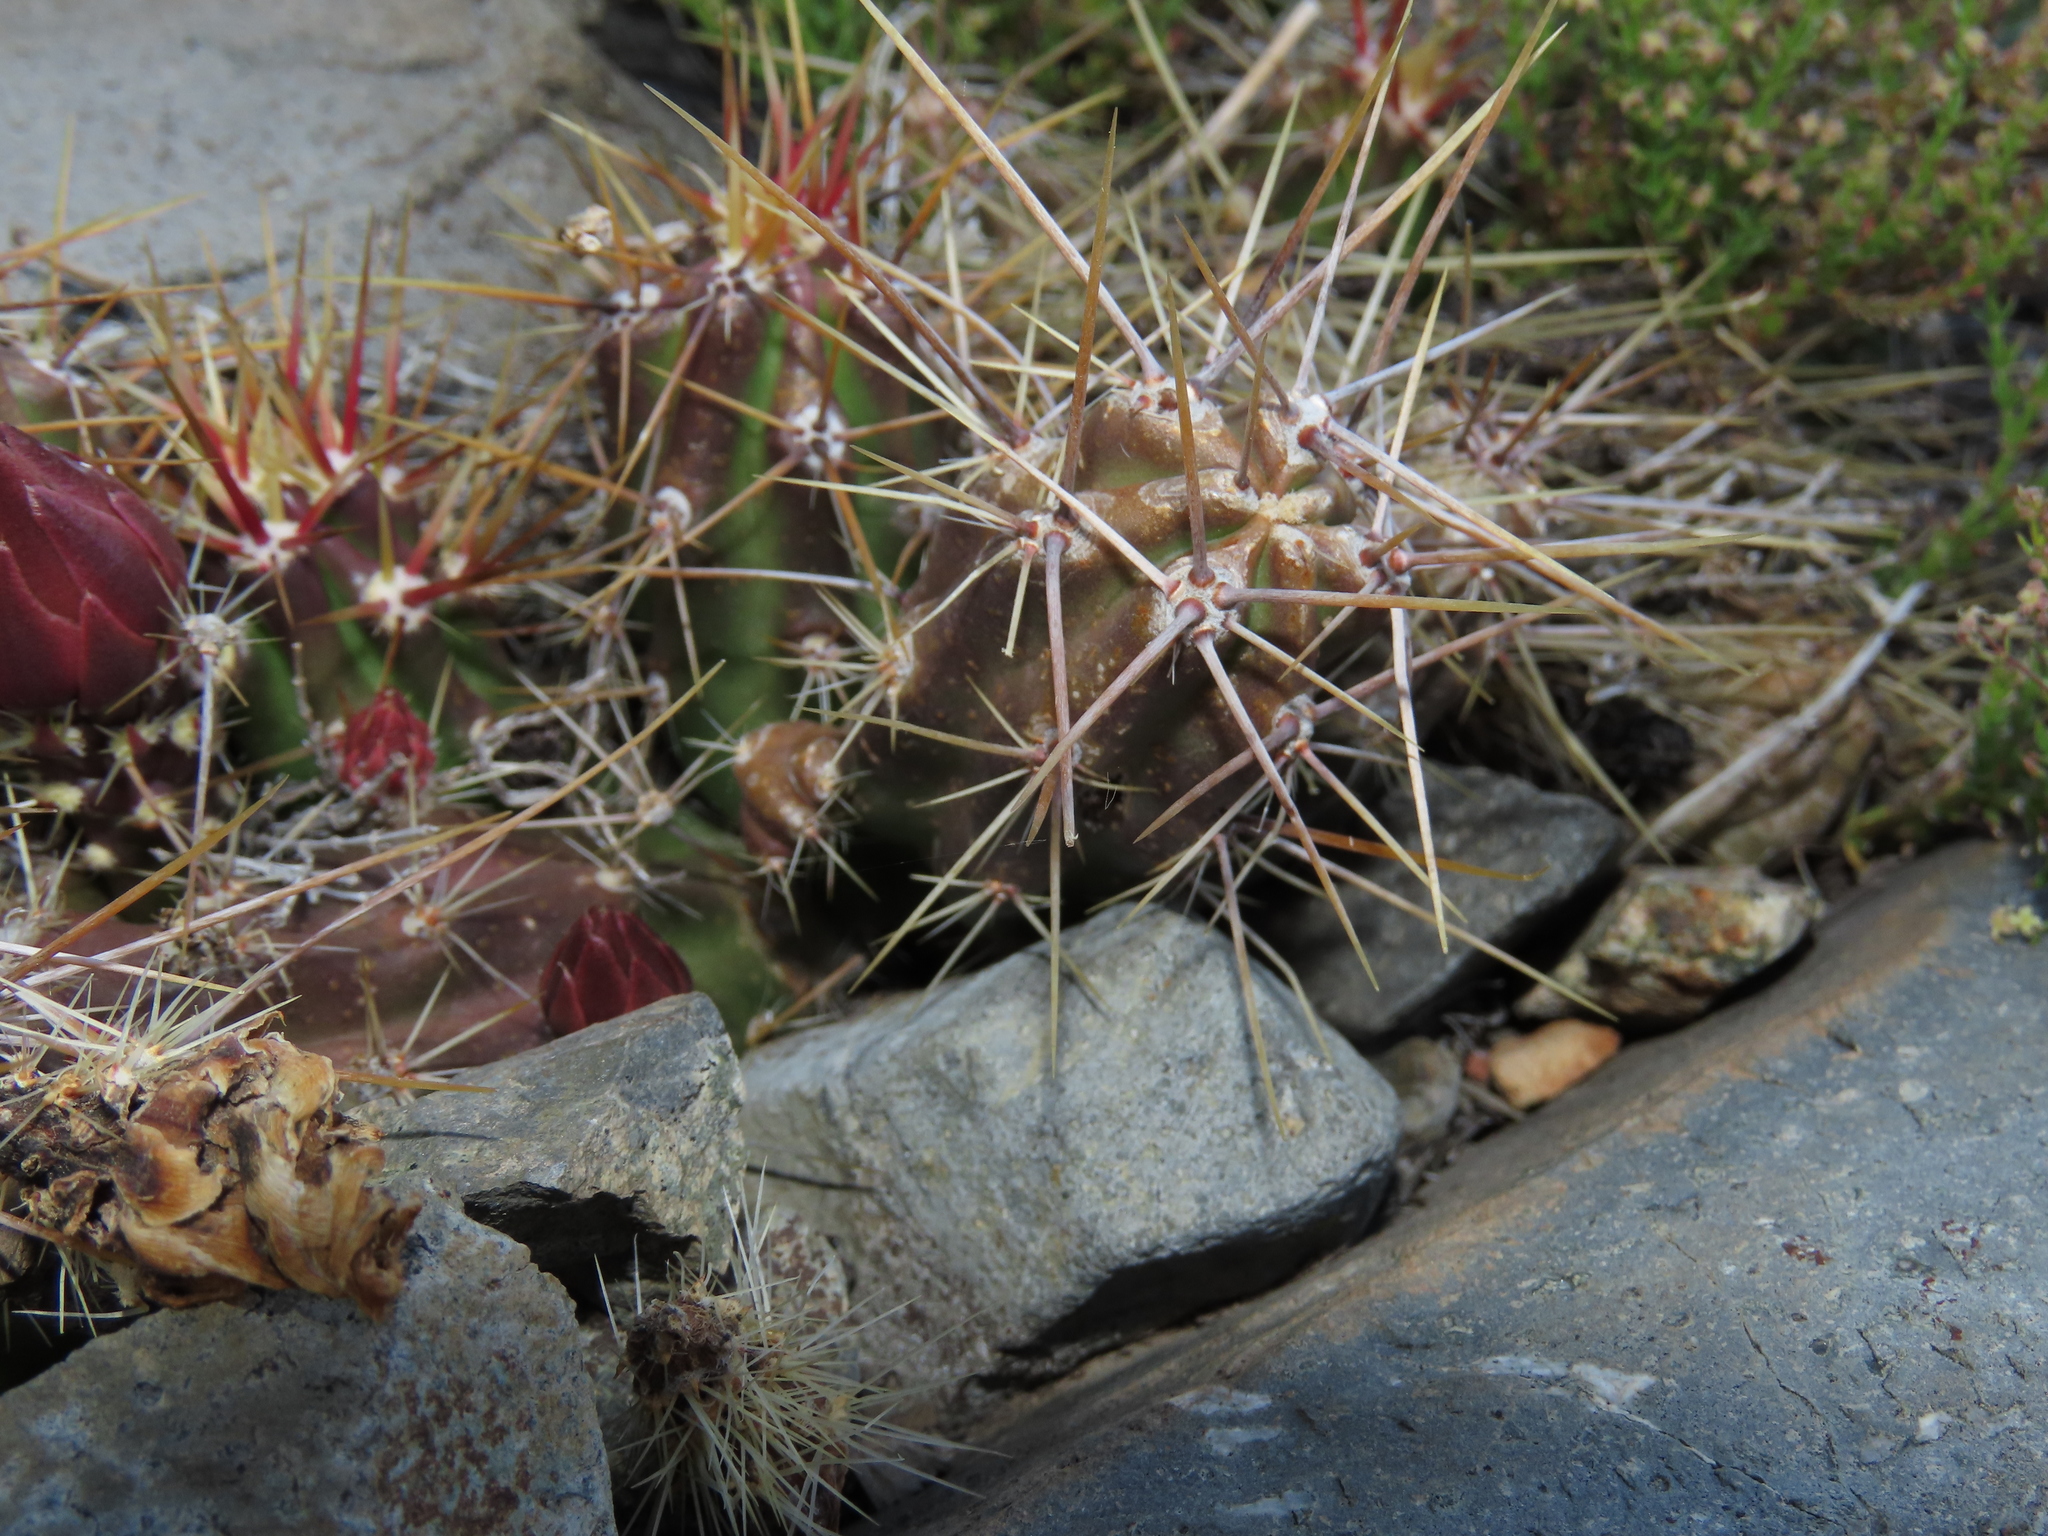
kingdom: Plantae
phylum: Tracheophyta
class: Magnoliopsida
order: Caryophyllales
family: Cactaceae
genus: Austrocactus
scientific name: Austrocactus spiniflorus
